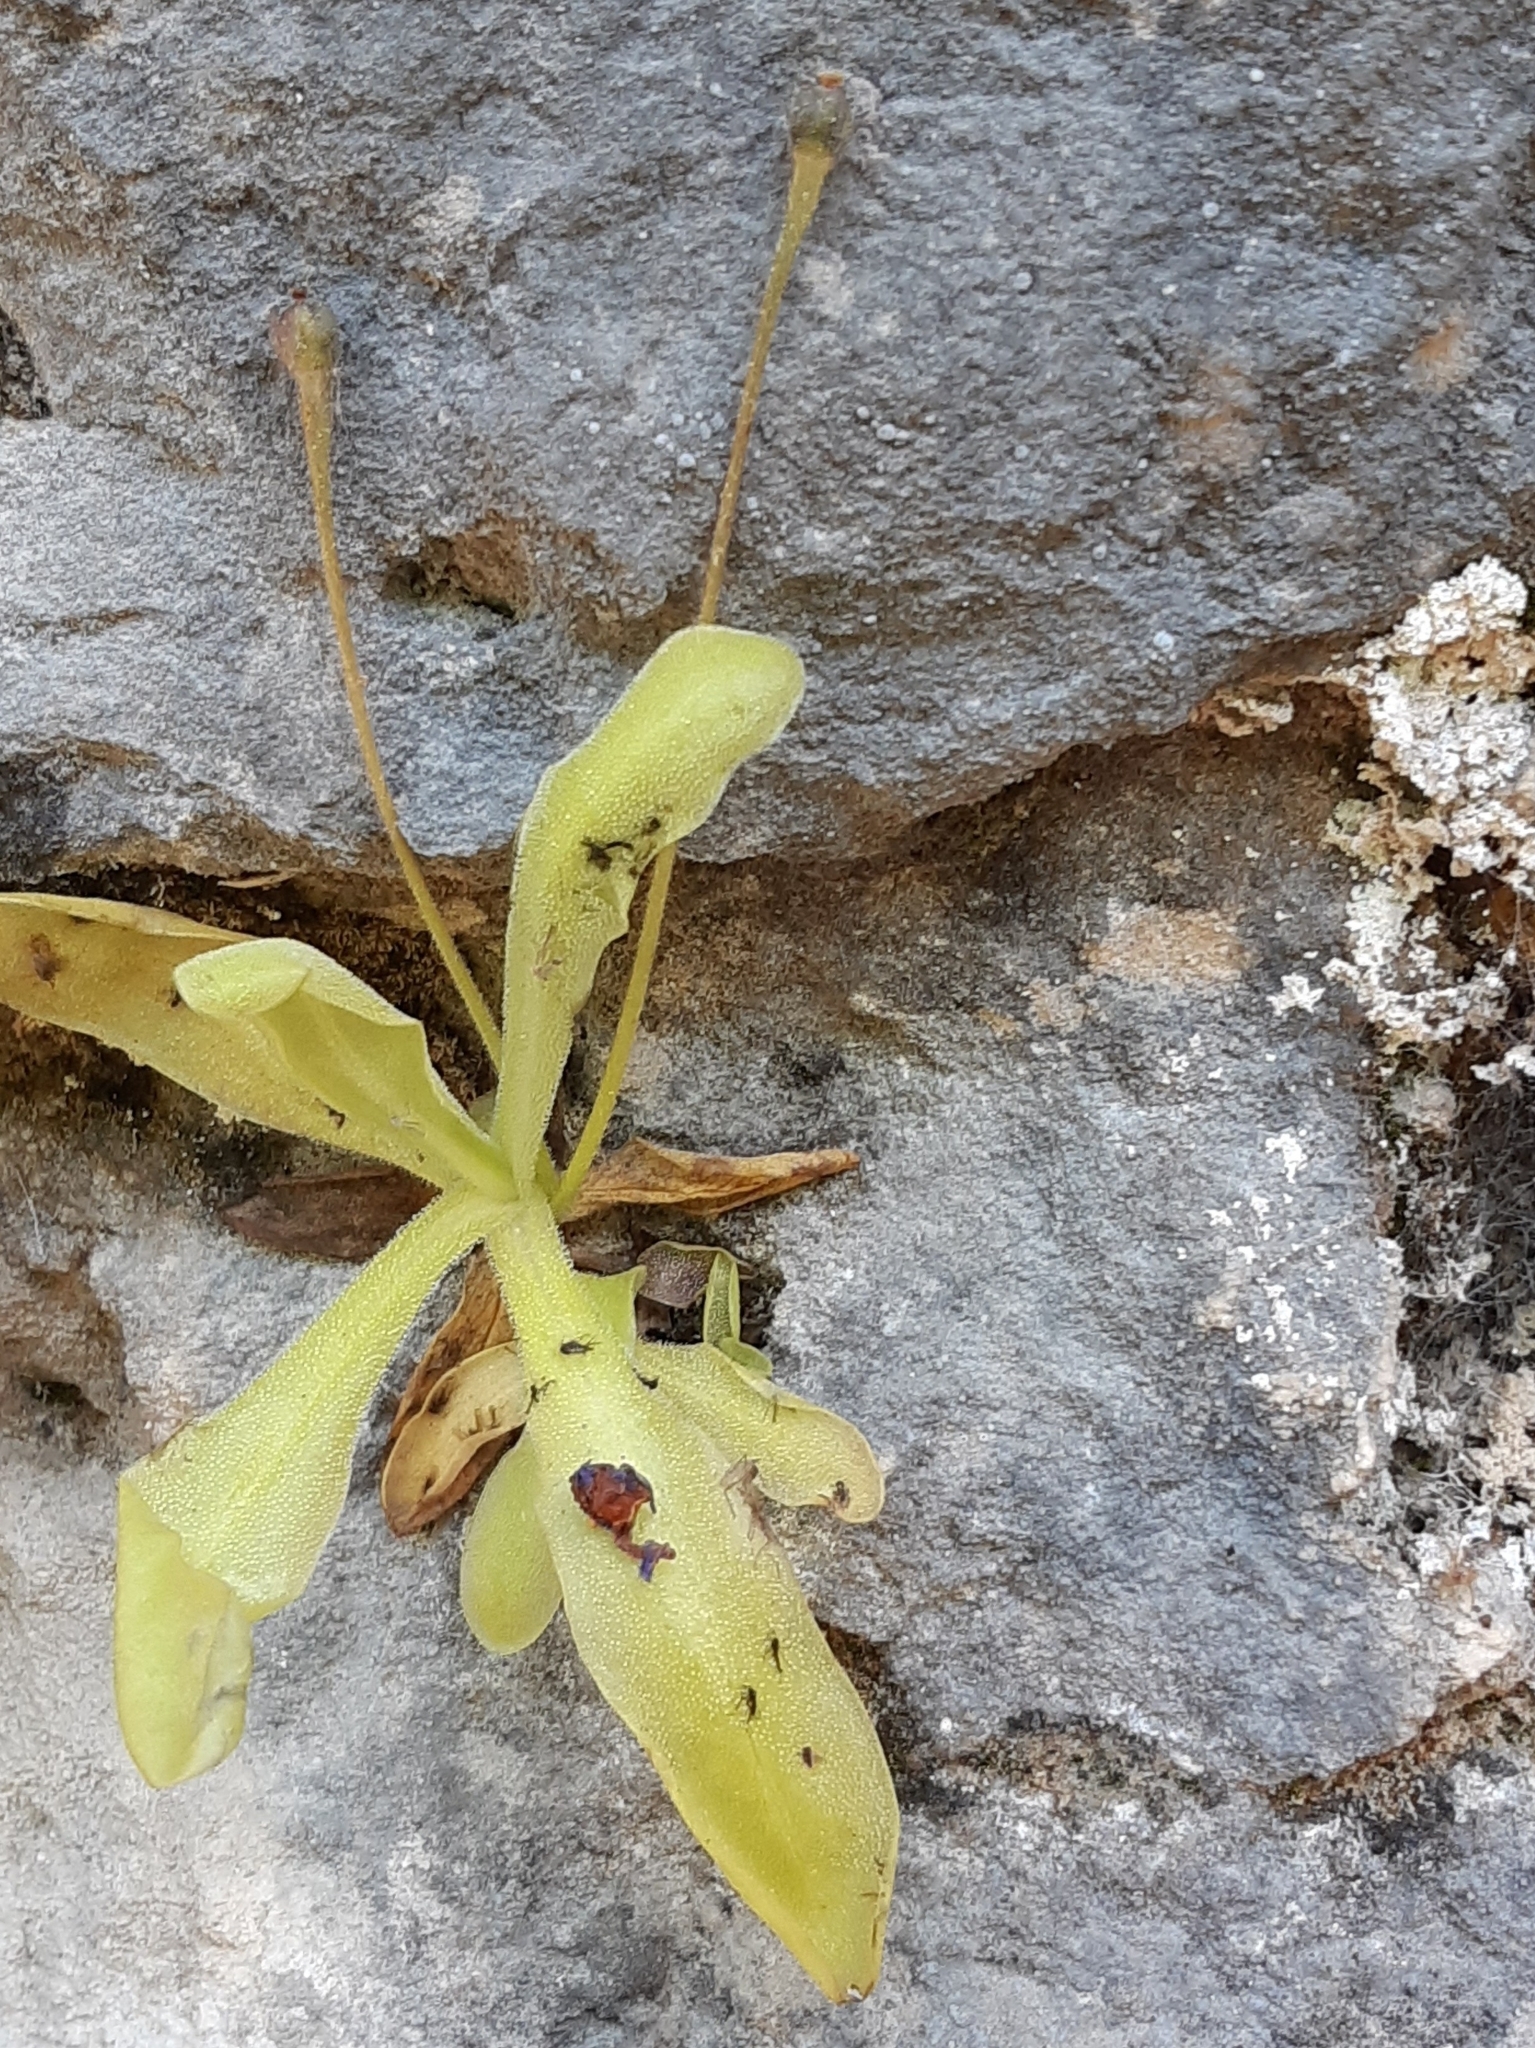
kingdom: Plantae
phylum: Tracheophyta
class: Magnoliopsida
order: Lamiales
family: Lentibulariaceae
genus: Pinguicula
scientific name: Pinguicula longifolia
